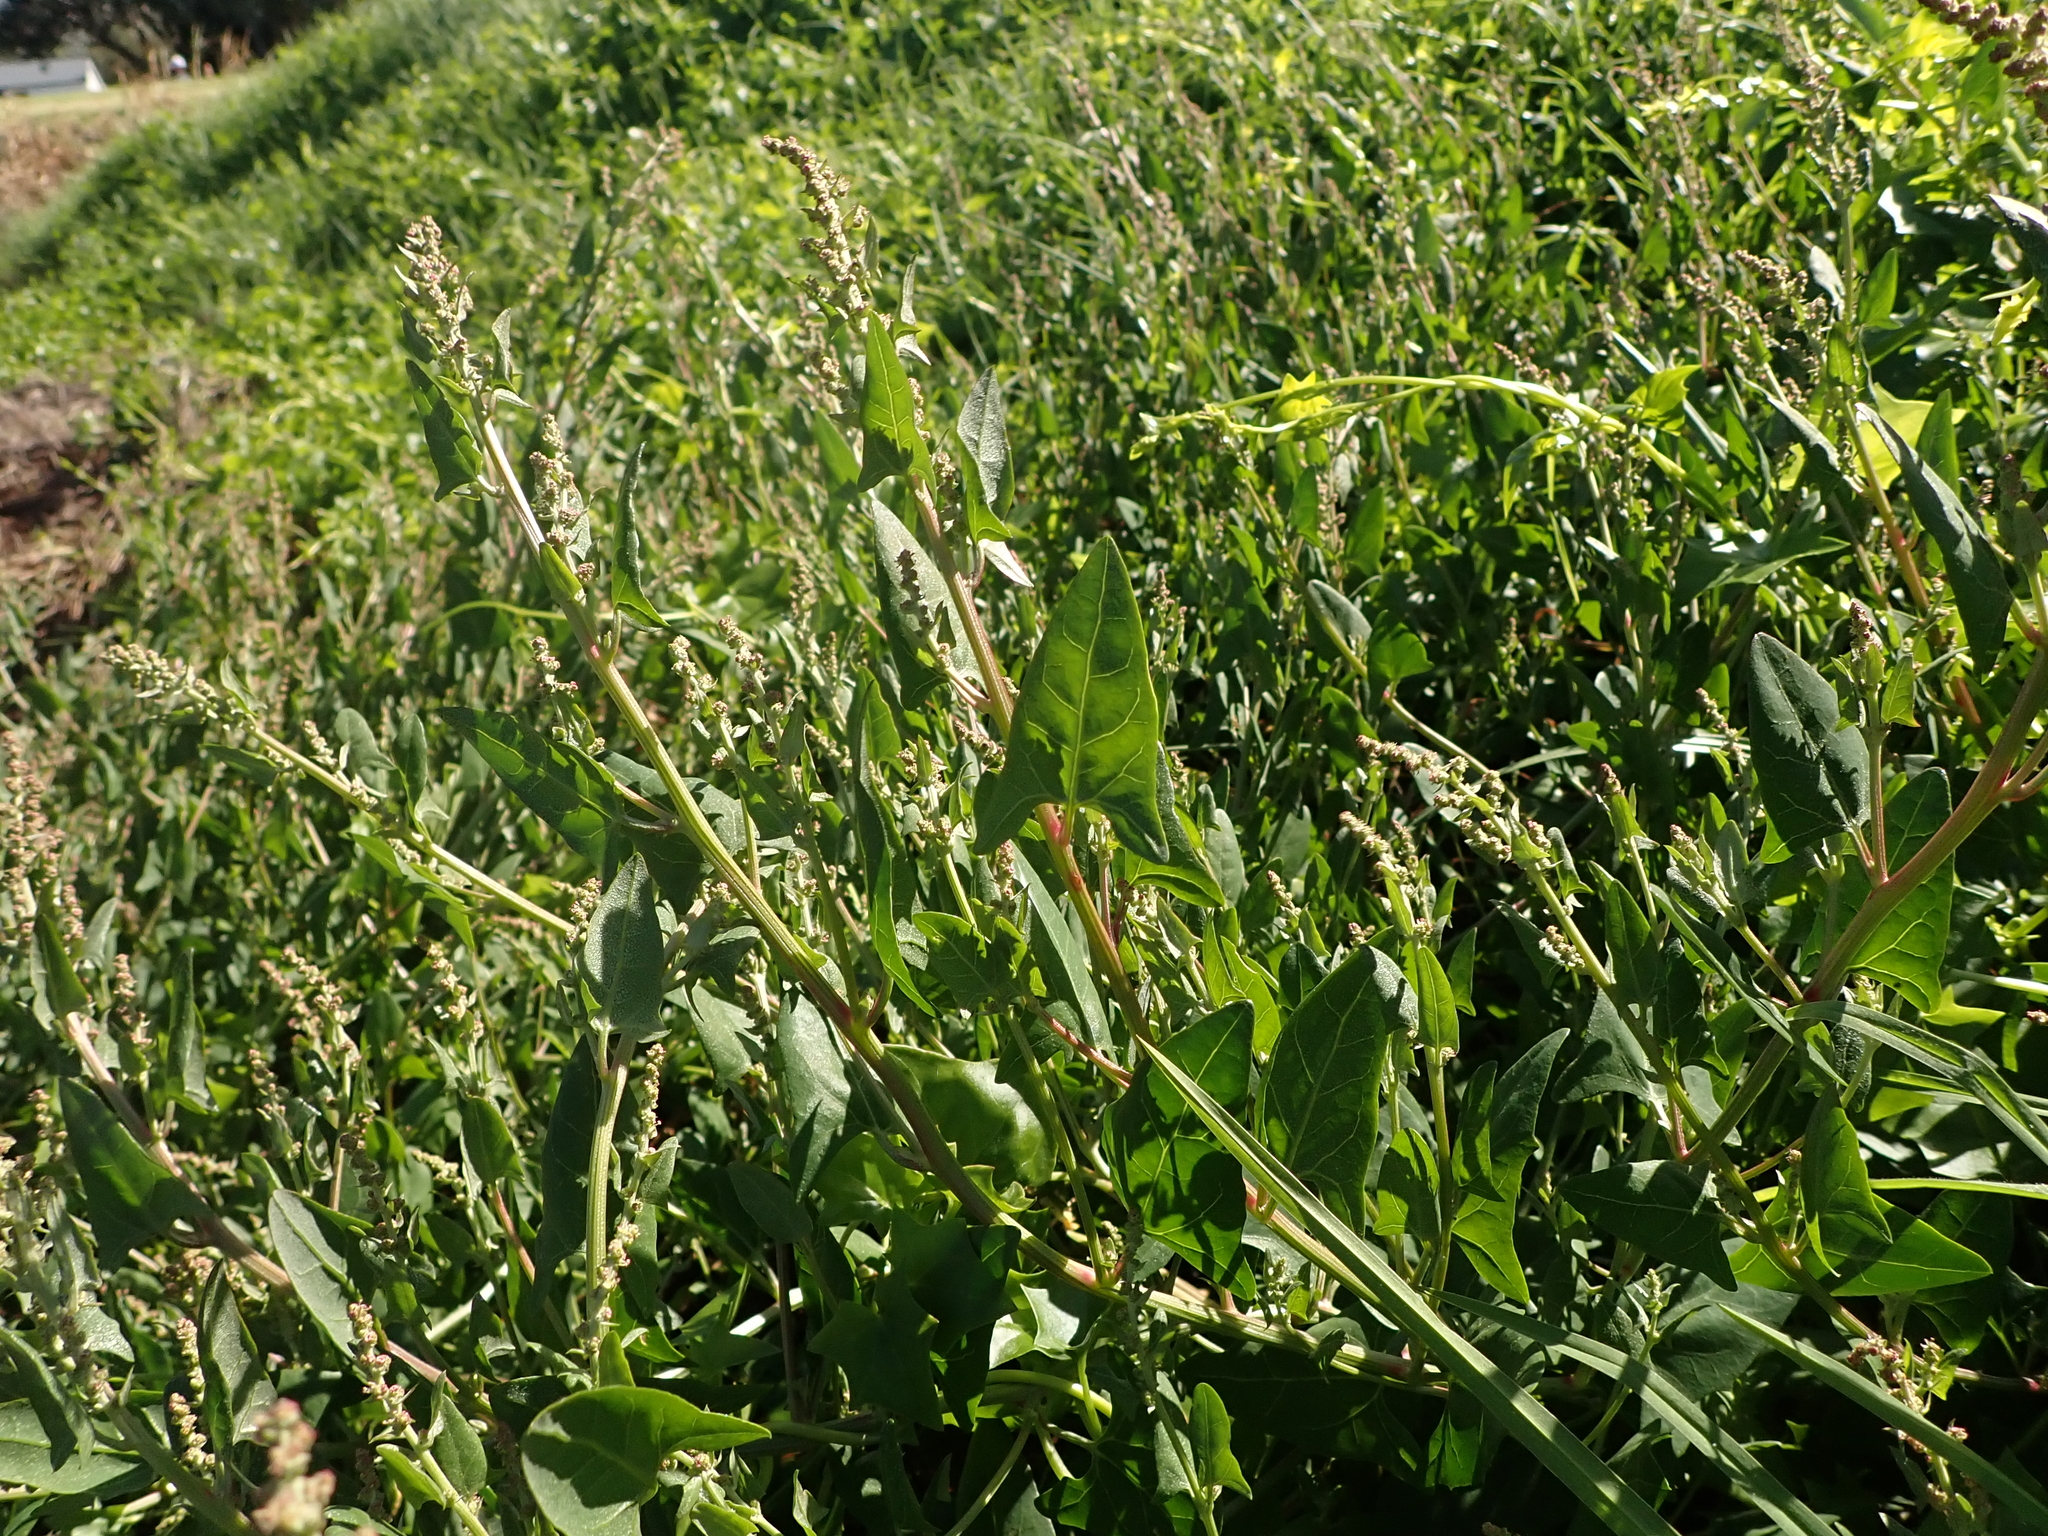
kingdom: Plantae
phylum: Tracheophyta
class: Magnoliopsida
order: Caryophyllales
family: Amaranthaceae
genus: Atriplex
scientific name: Atriplex prostrata
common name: Spear-leaved orache
